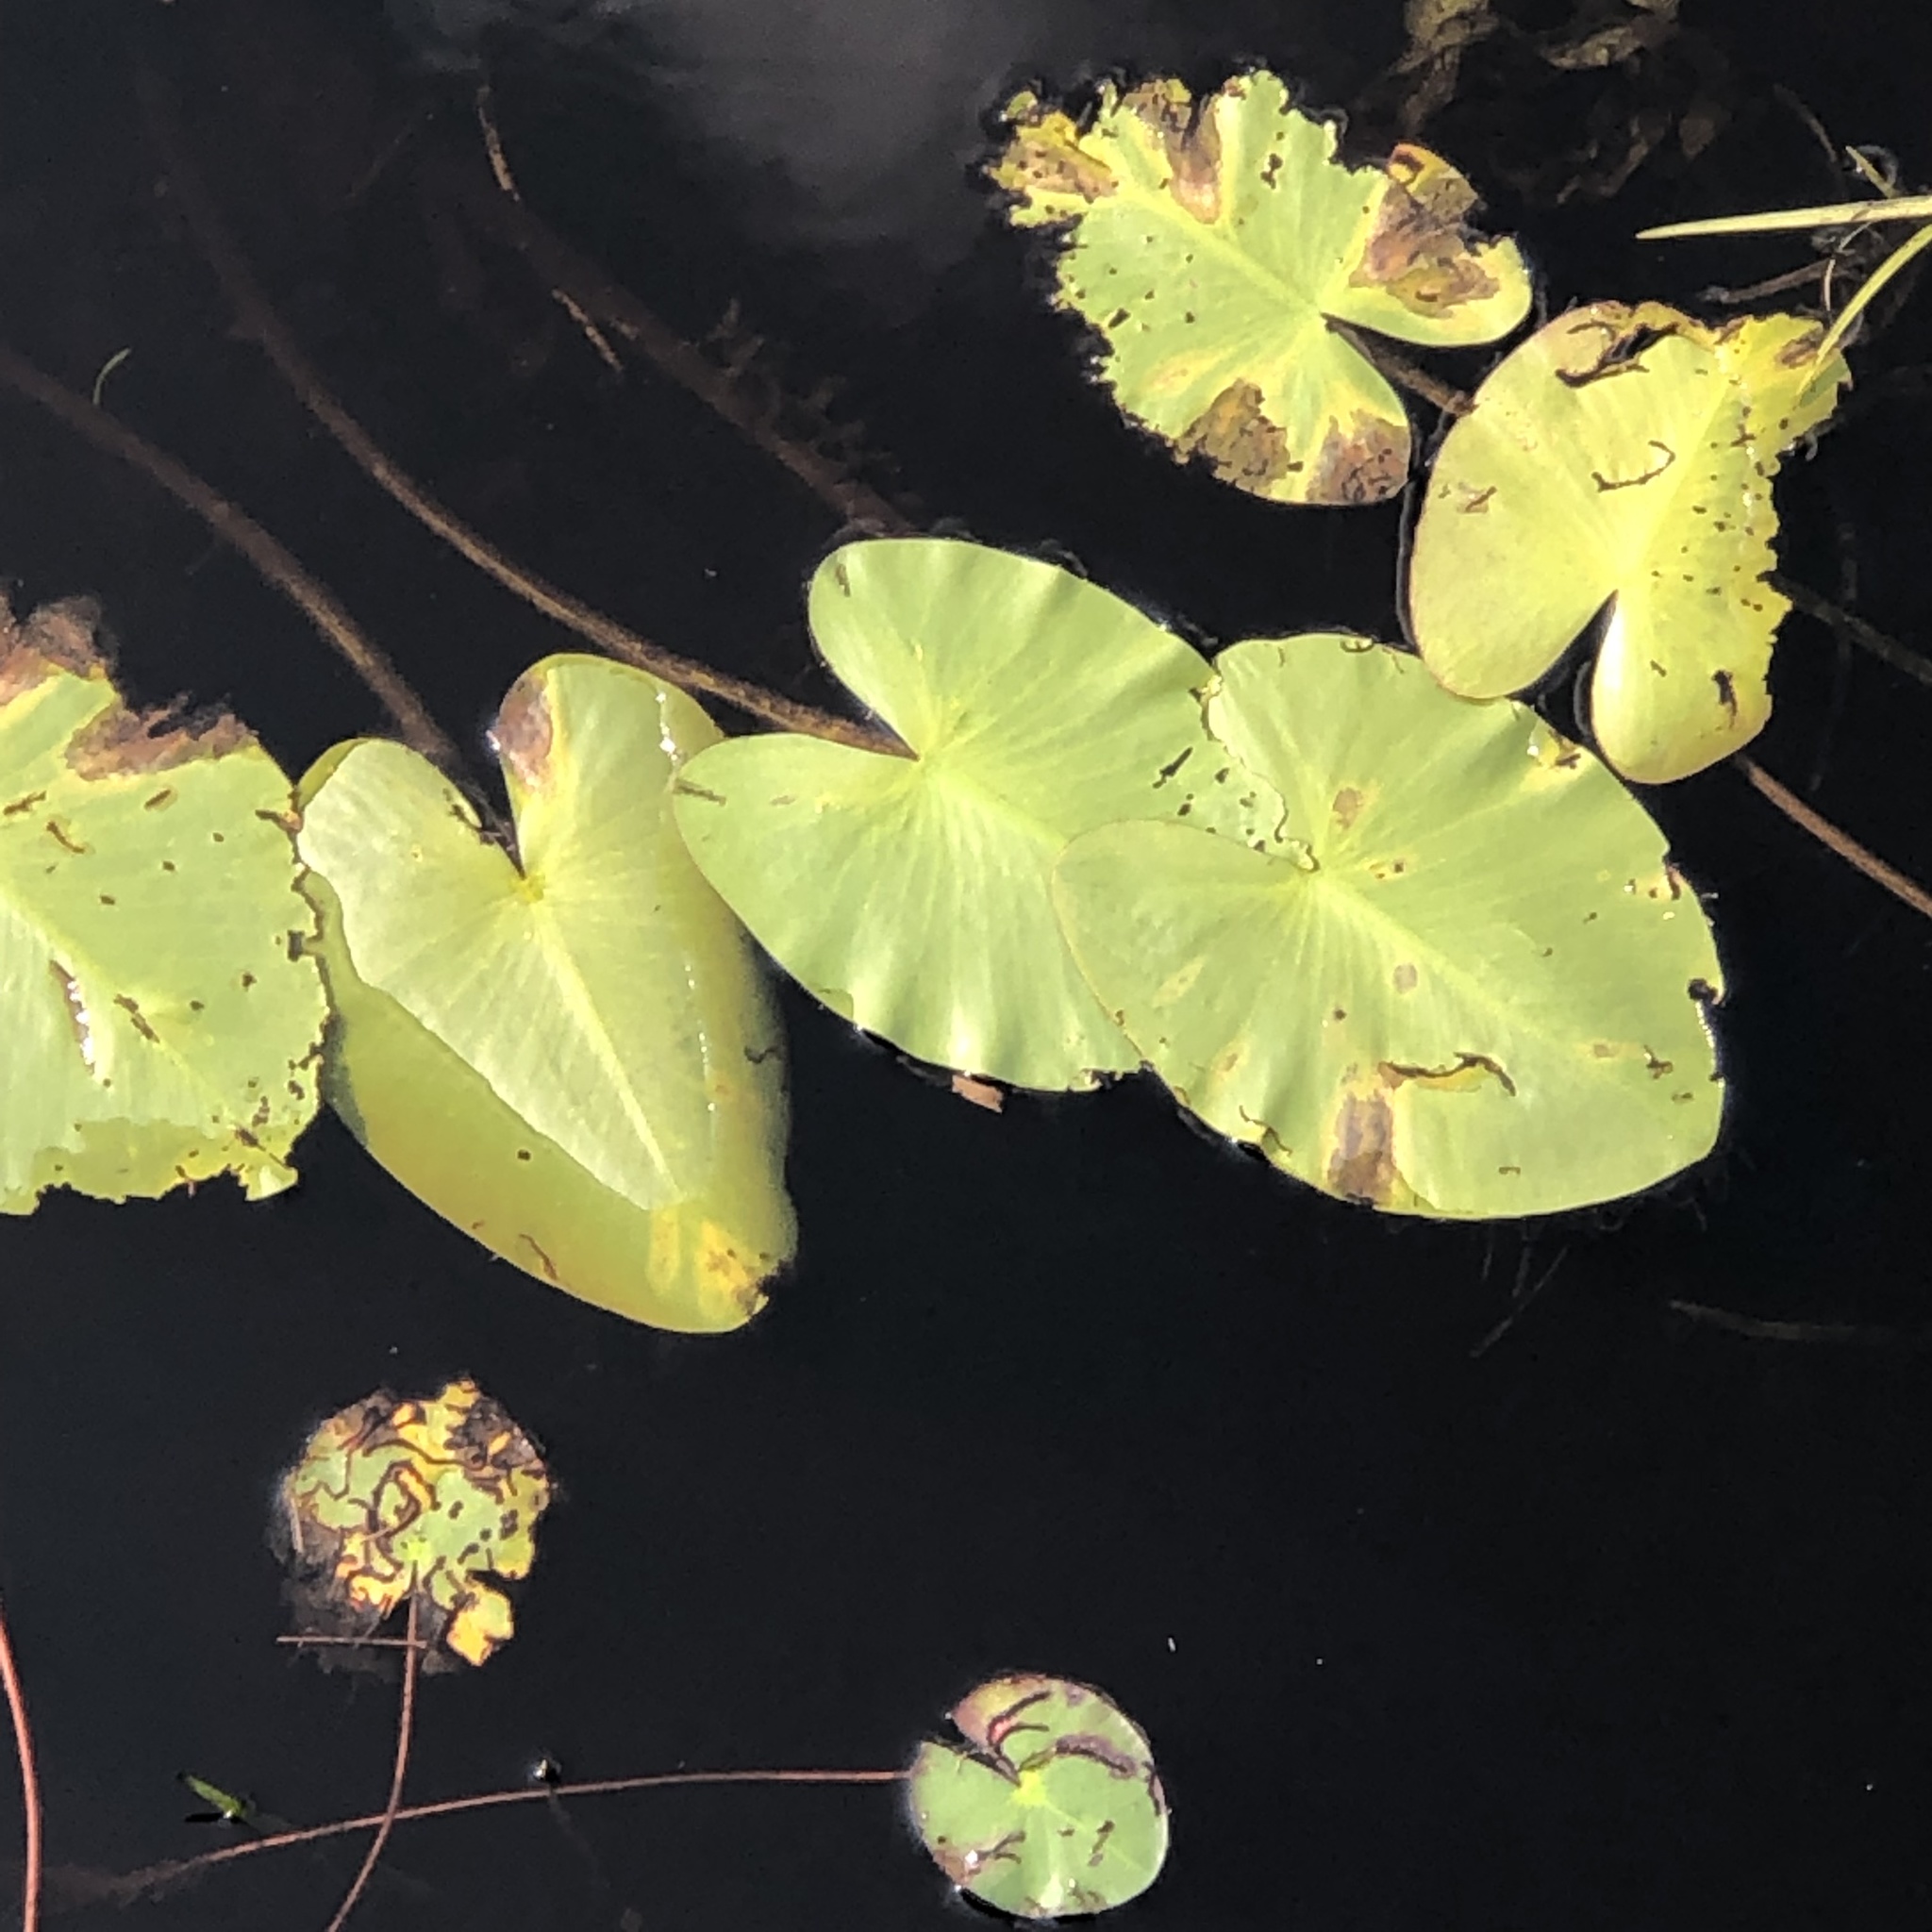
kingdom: Plantae
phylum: Tracheophyta
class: Magnoliopsida
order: Nymphaeales
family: Nymphaeaceae
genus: Nuphar
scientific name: Nuphar variegata
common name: Beaver-root
